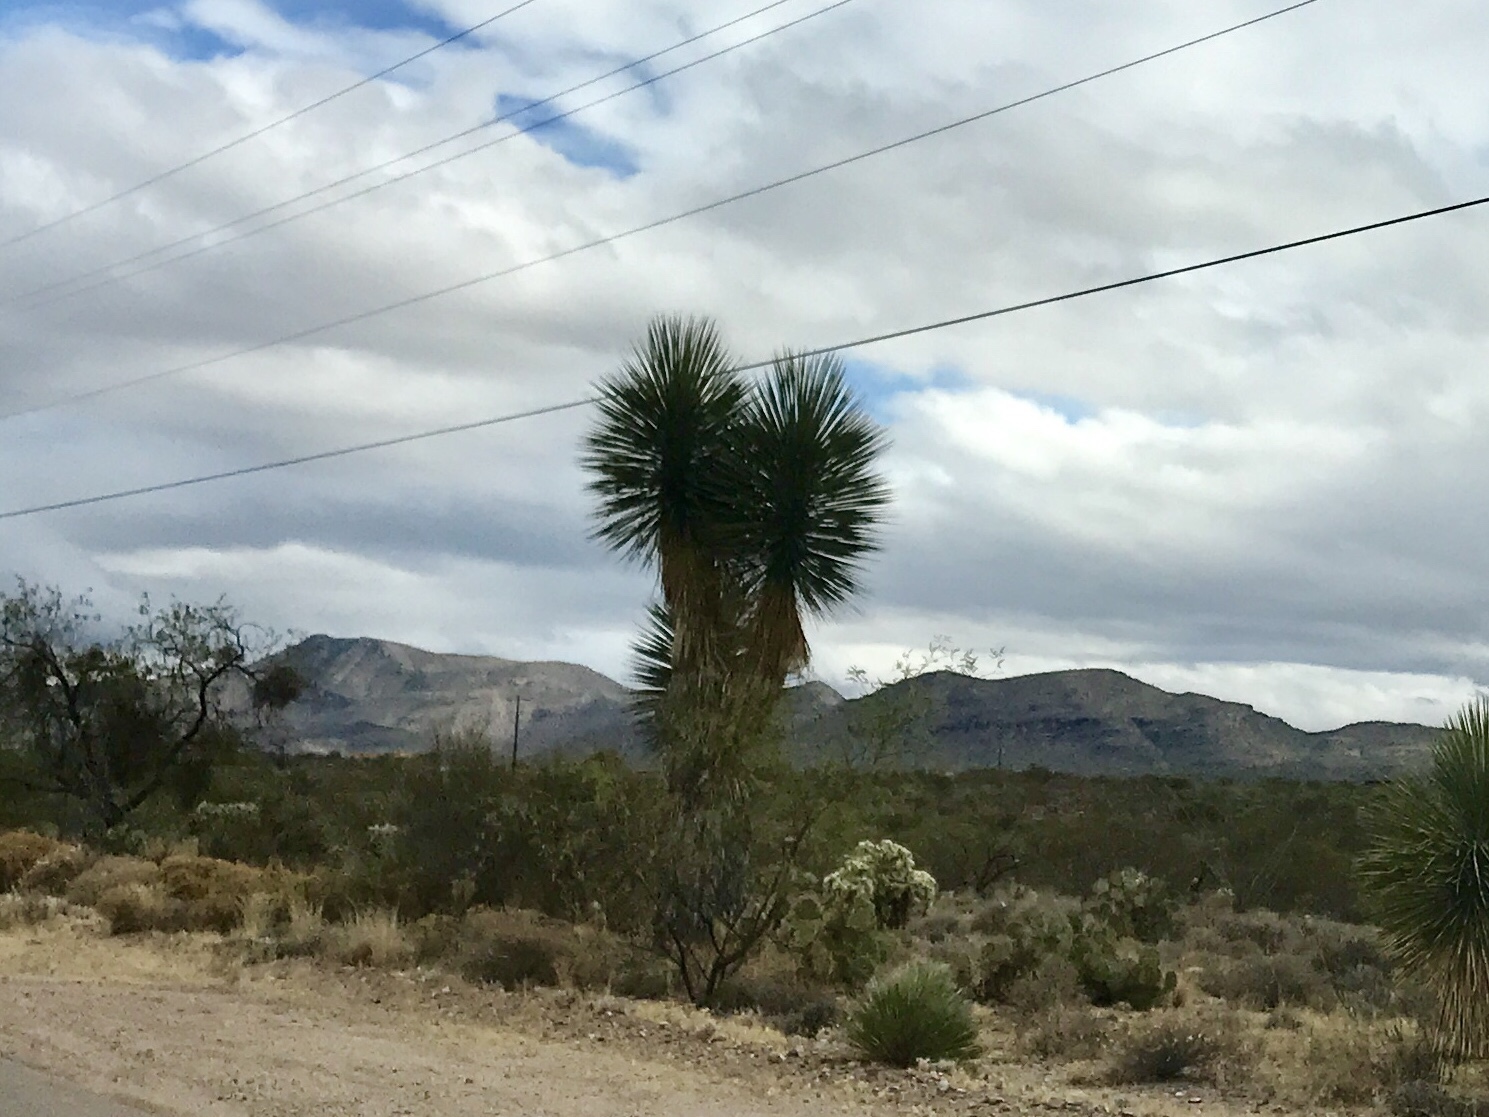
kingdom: Plantae
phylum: Tracheophyta
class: Liliopsida
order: Asparagales
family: Asparagaceae
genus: Yucca
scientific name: Yucca elata
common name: Palmella
